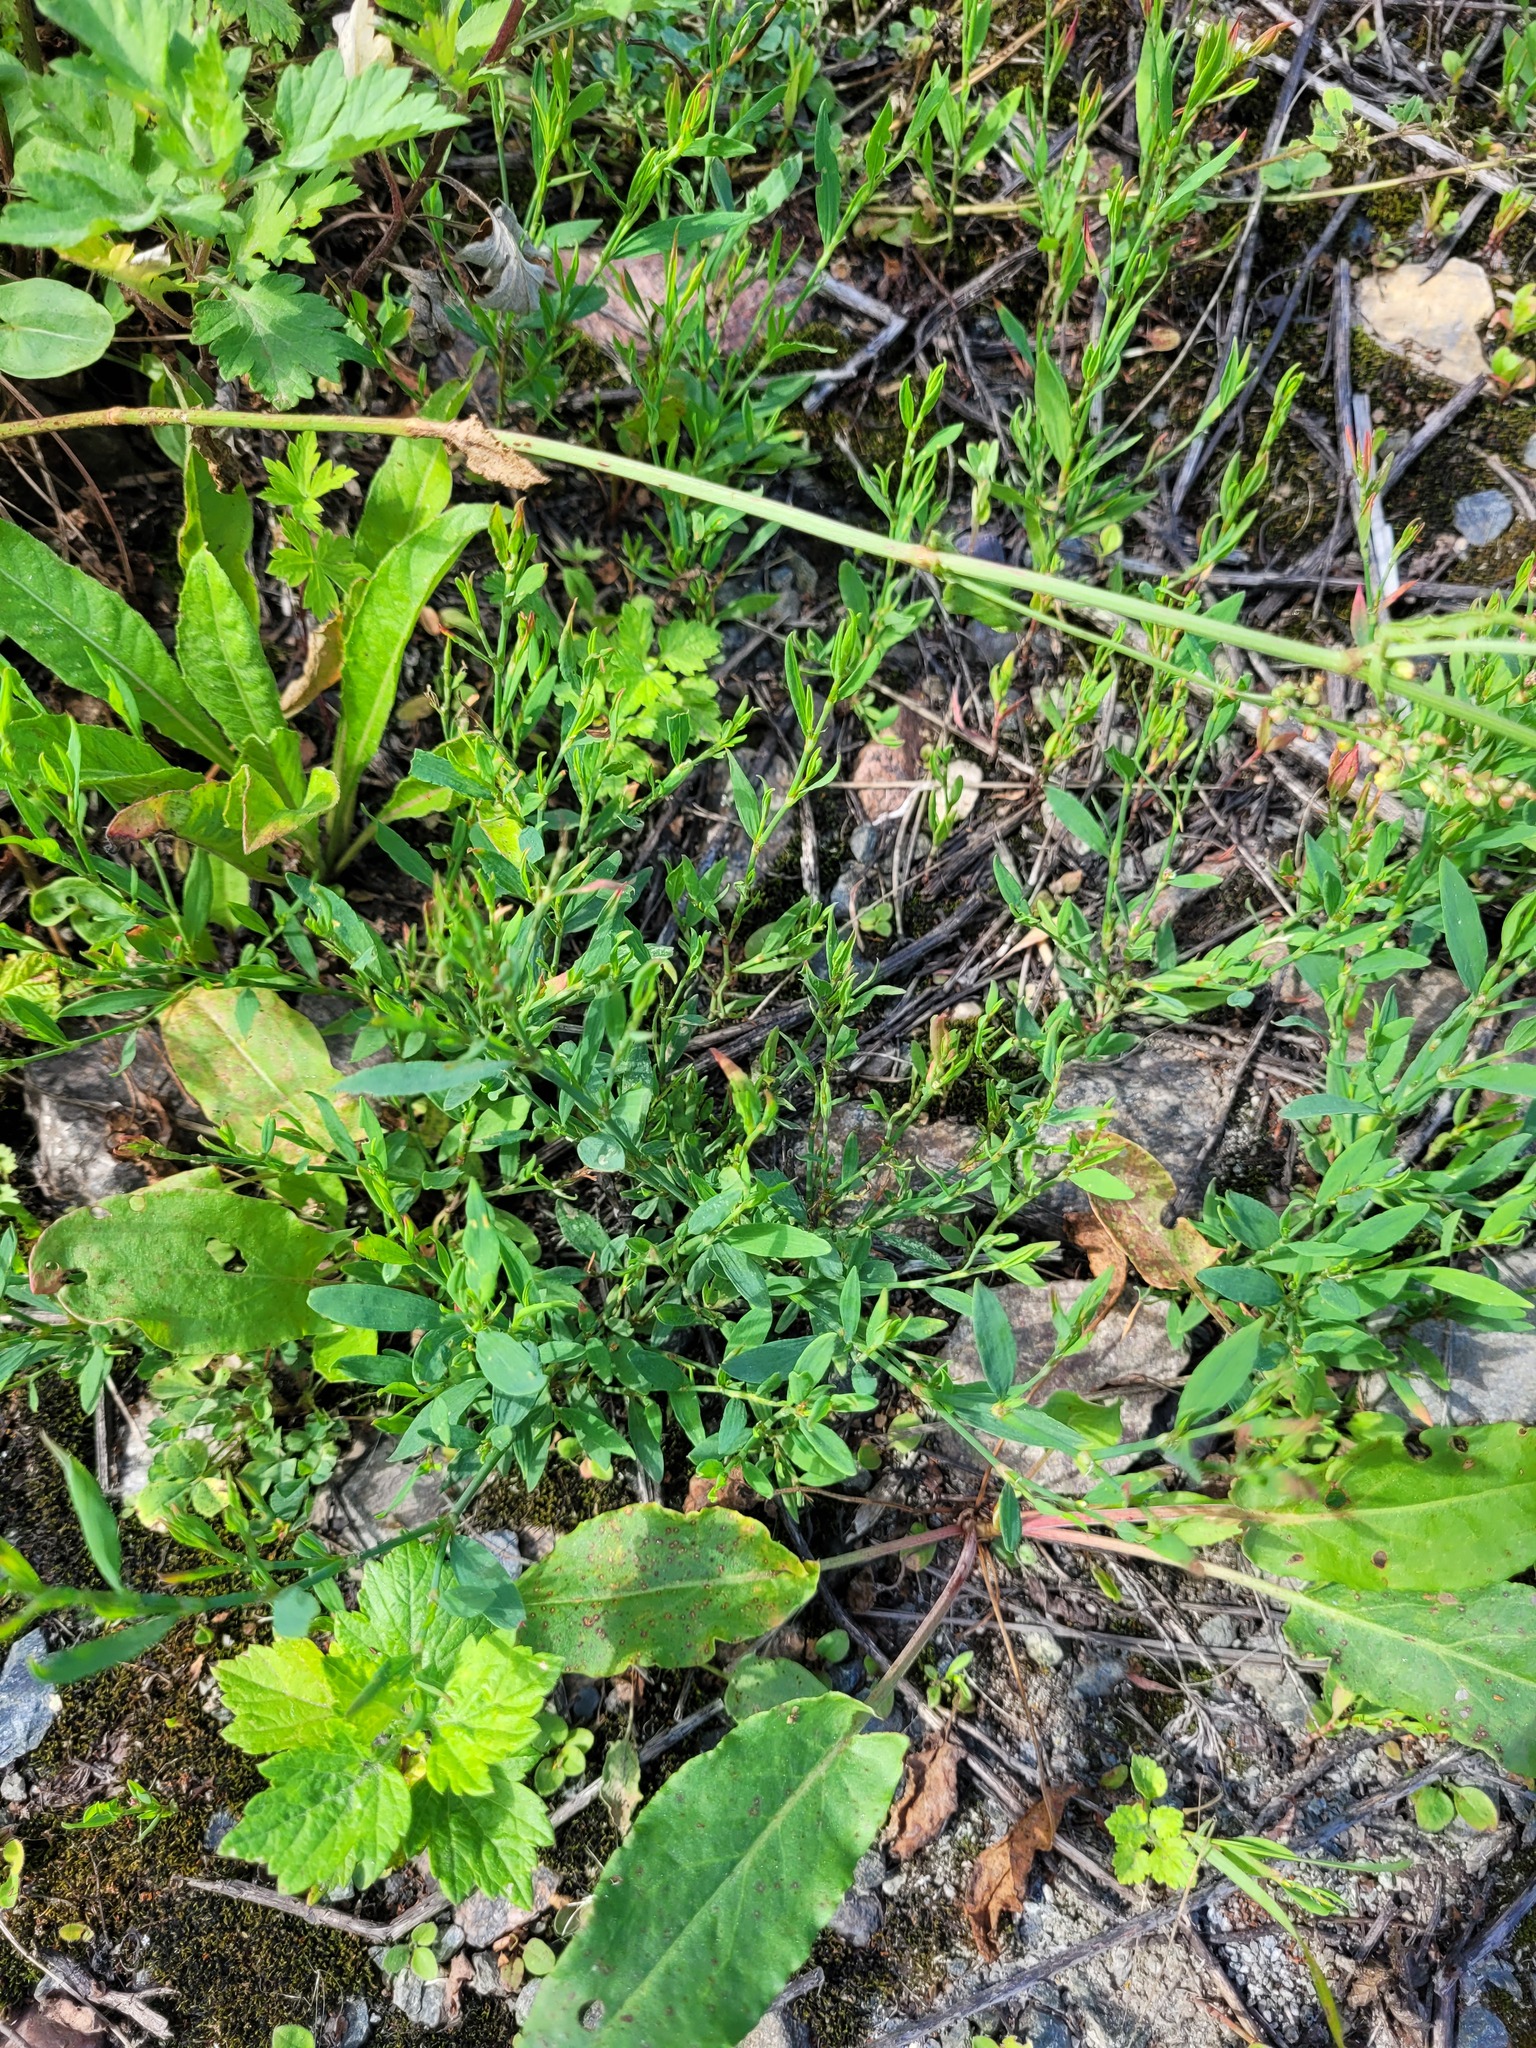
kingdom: Plantae
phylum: Tracheophyta
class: Magnoliopsida
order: Caryophyllales
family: Polygonaceae
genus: Polygonum
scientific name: Polygonum
